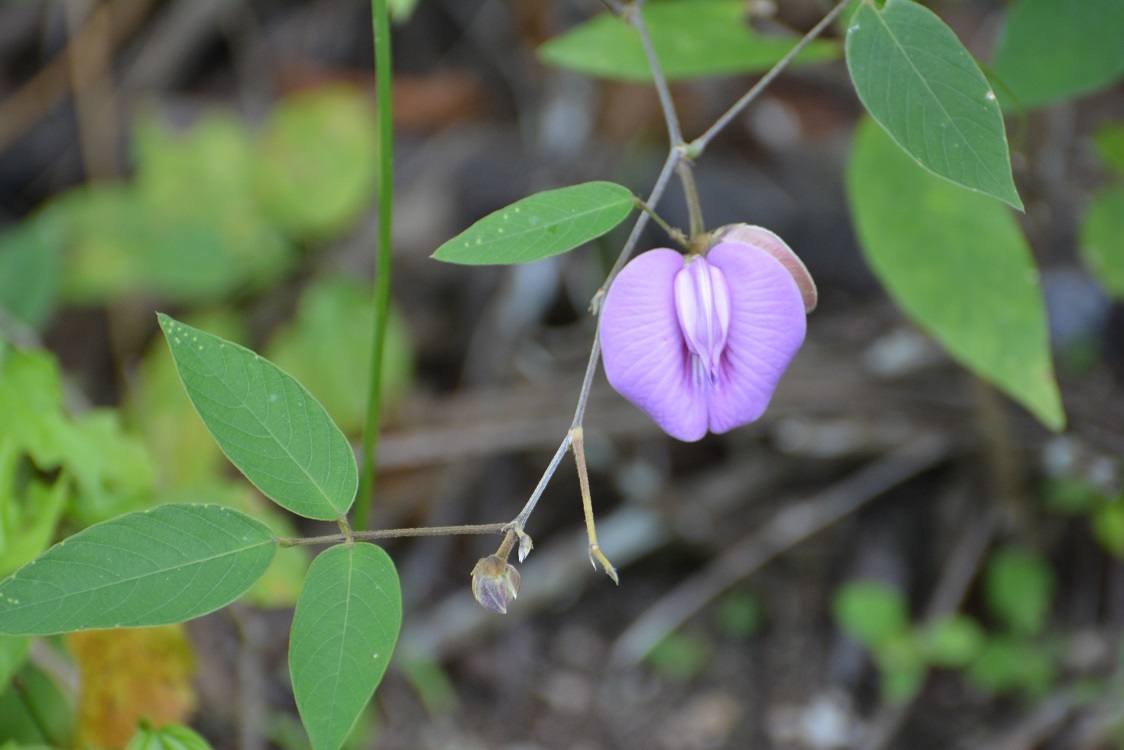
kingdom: Plantae
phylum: Tracheophyta
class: Magnoliopsida
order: Fabales
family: Fabaceae
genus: Centrosema
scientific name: Centrosema virginianum
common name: Butterfly-pea
